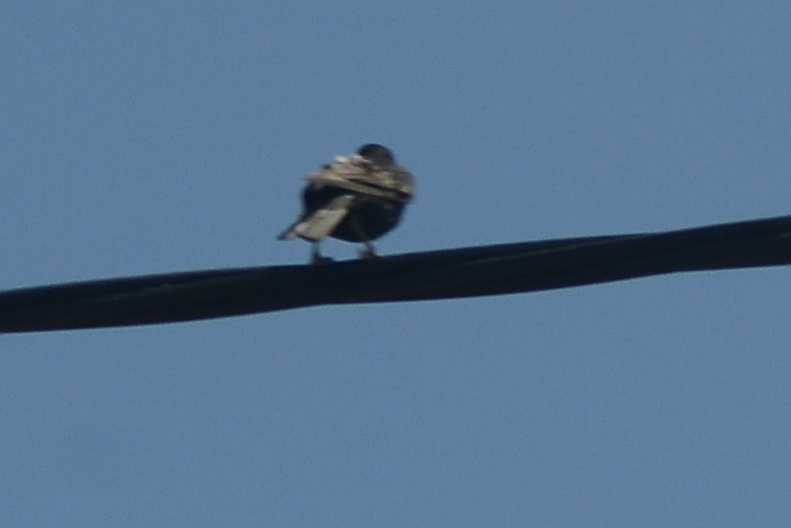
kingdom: Animalia
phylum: Chordata
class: Aves
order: Passeriformes
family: Sturnidae
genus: Sturnus
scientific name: Sturnus vulgaris
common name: Common starling
